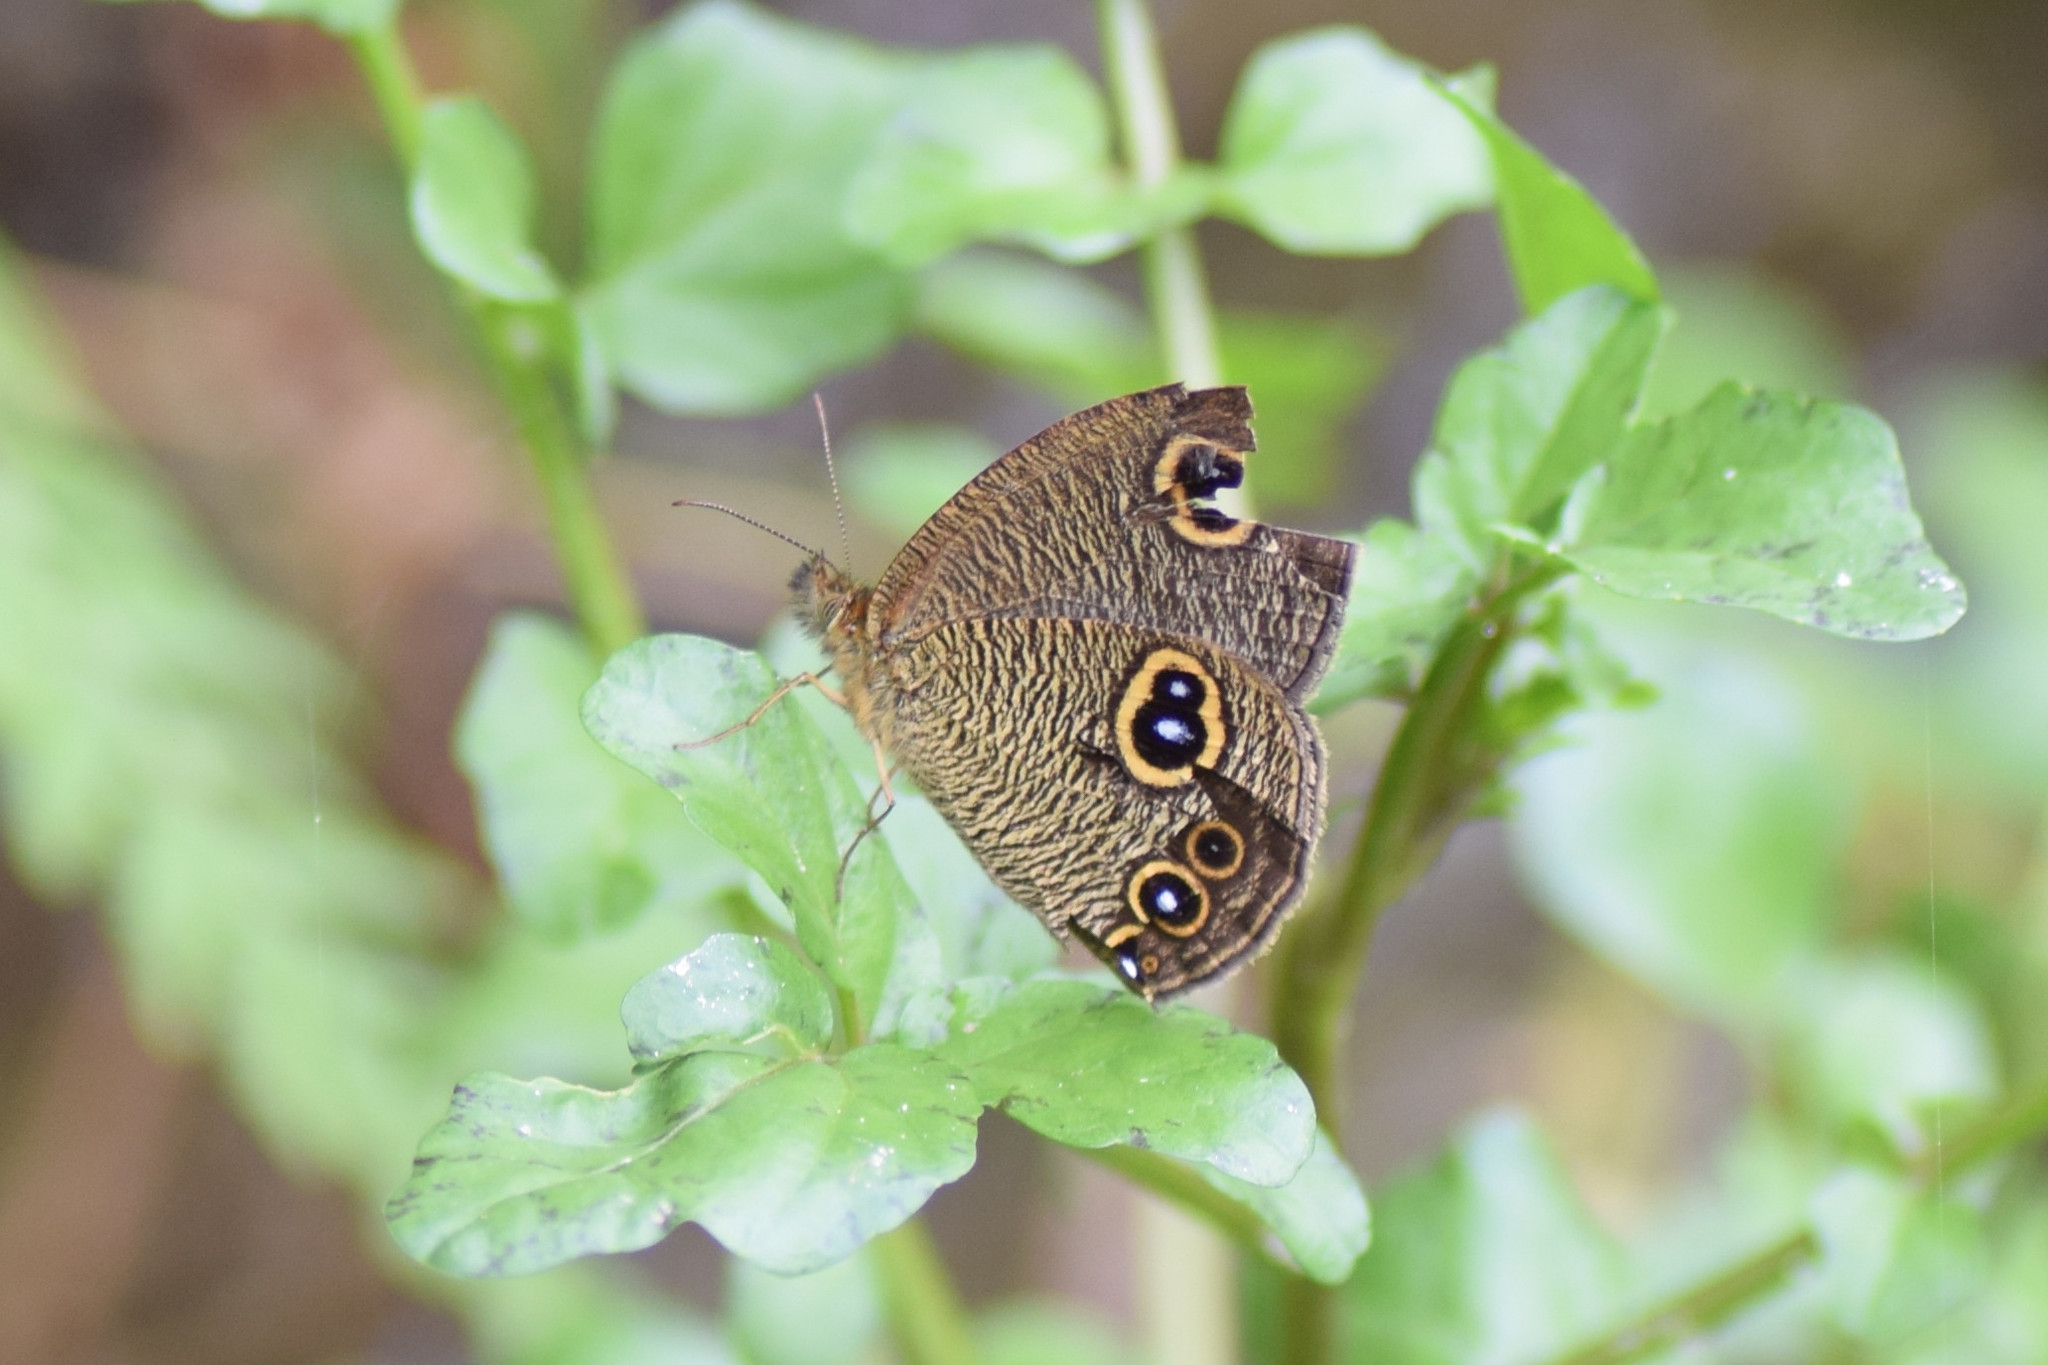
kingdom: Animalia
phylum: Arthropoda
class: Insecta
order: Lepidoptera
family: Nymphalidae
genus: Ypthima
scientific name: Ypthima nikaea
